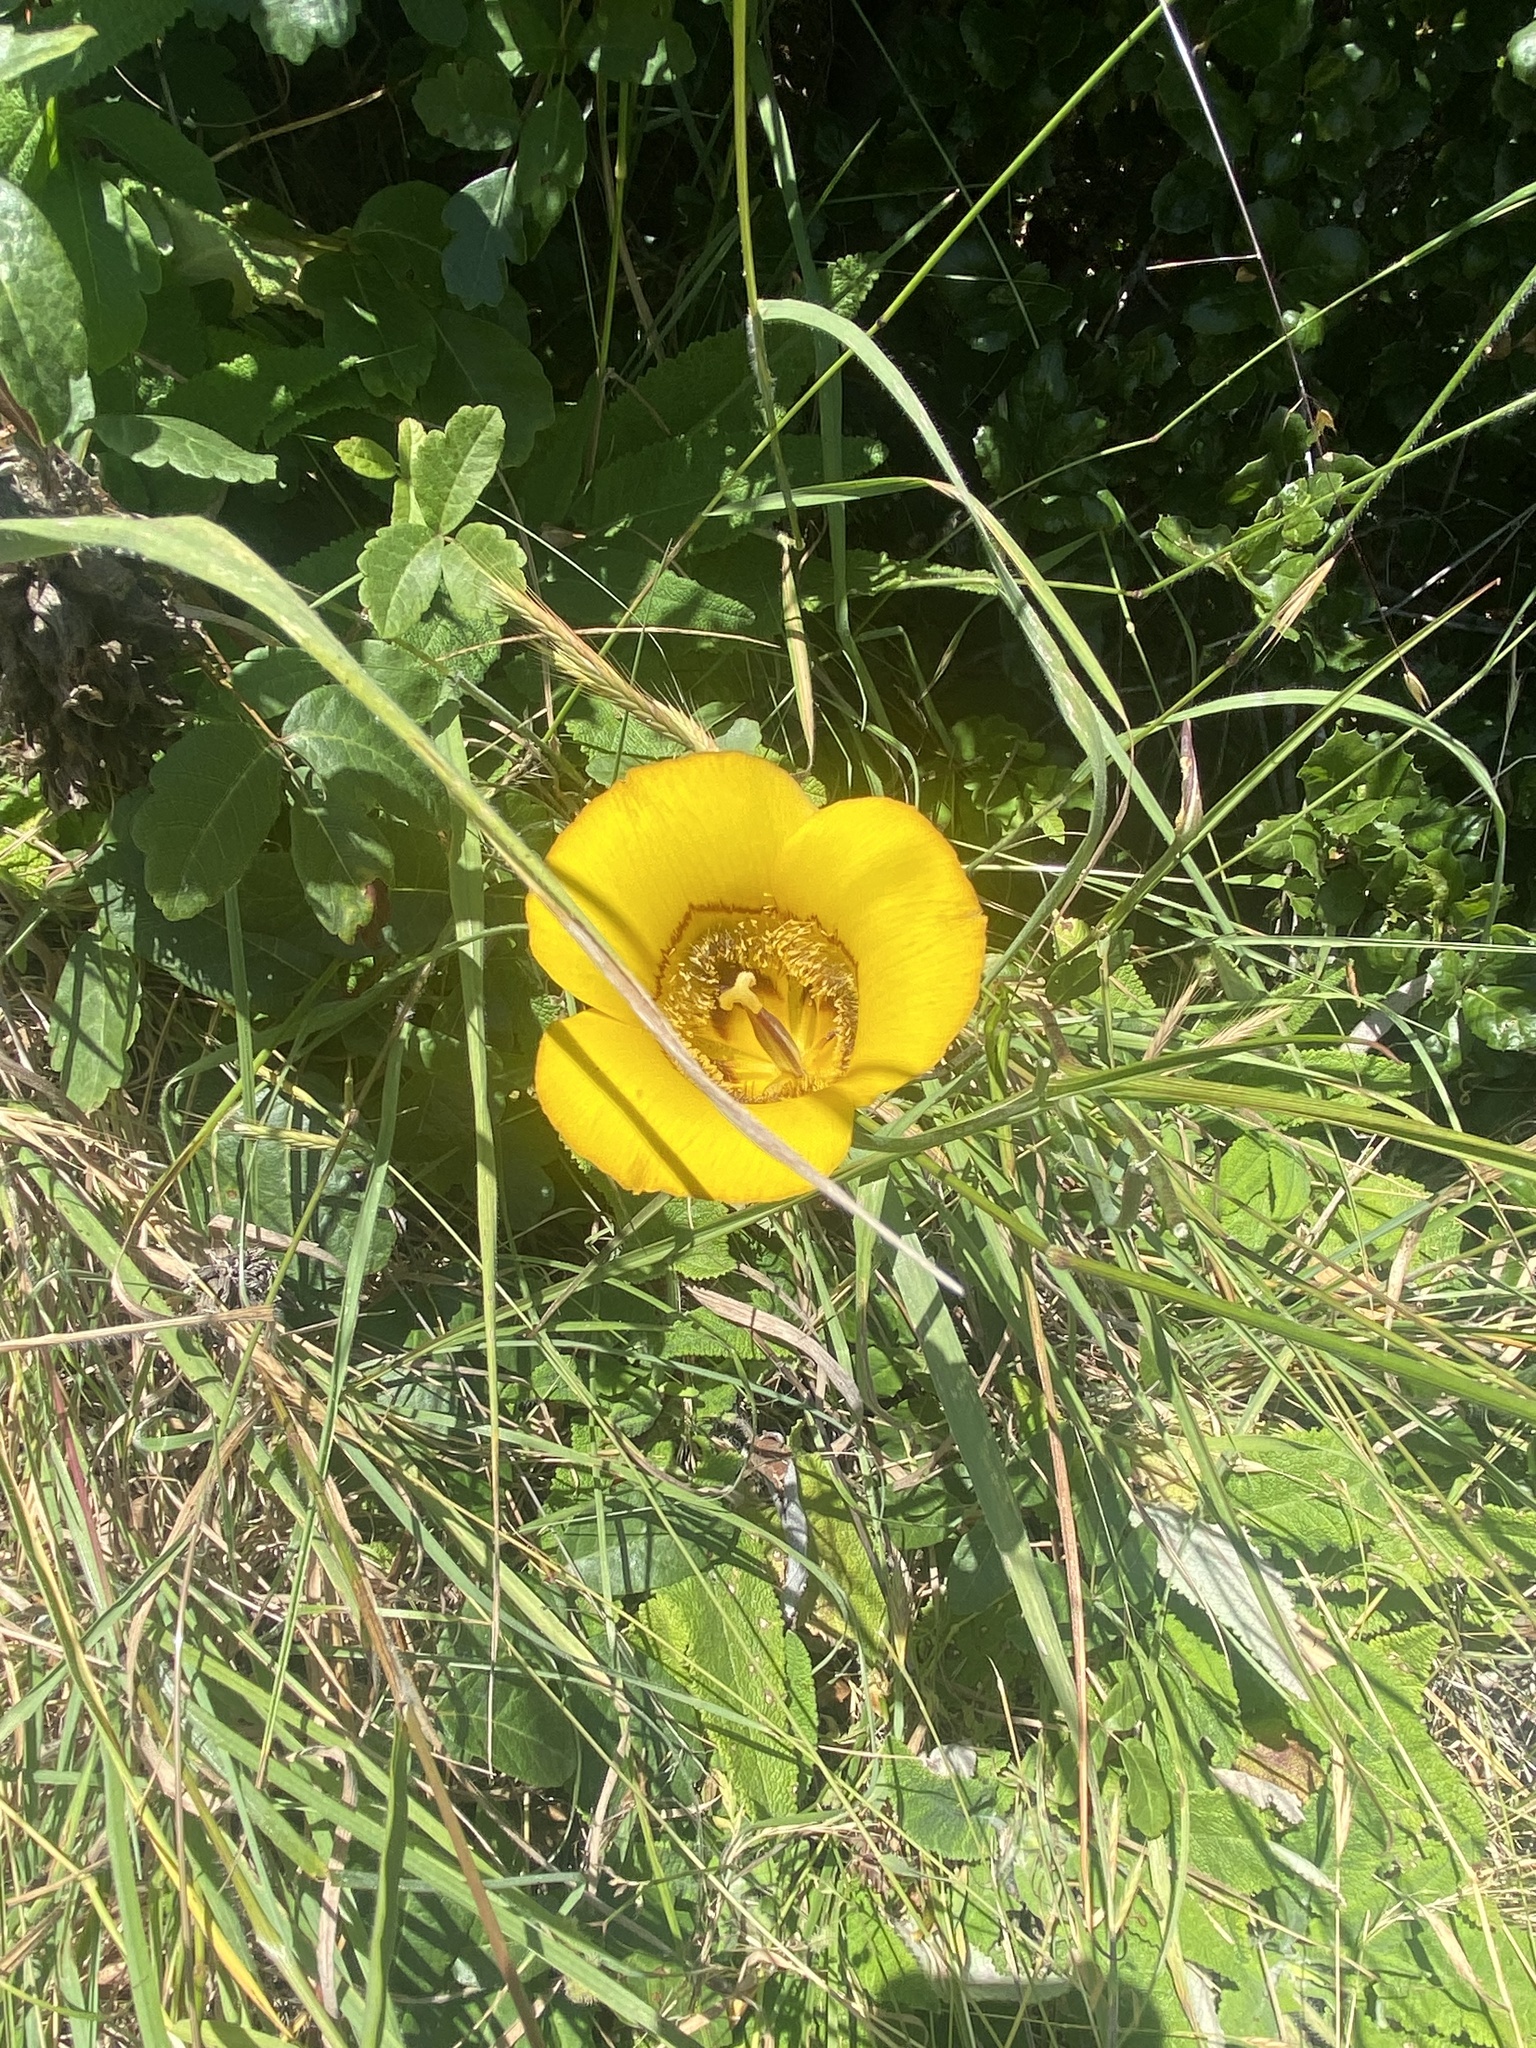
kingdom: Plantae
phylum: Tracheophyta
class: Liliopsida
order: Liliales
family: Liliaceae
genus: Calochortus
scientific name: Calochortus clavatus
